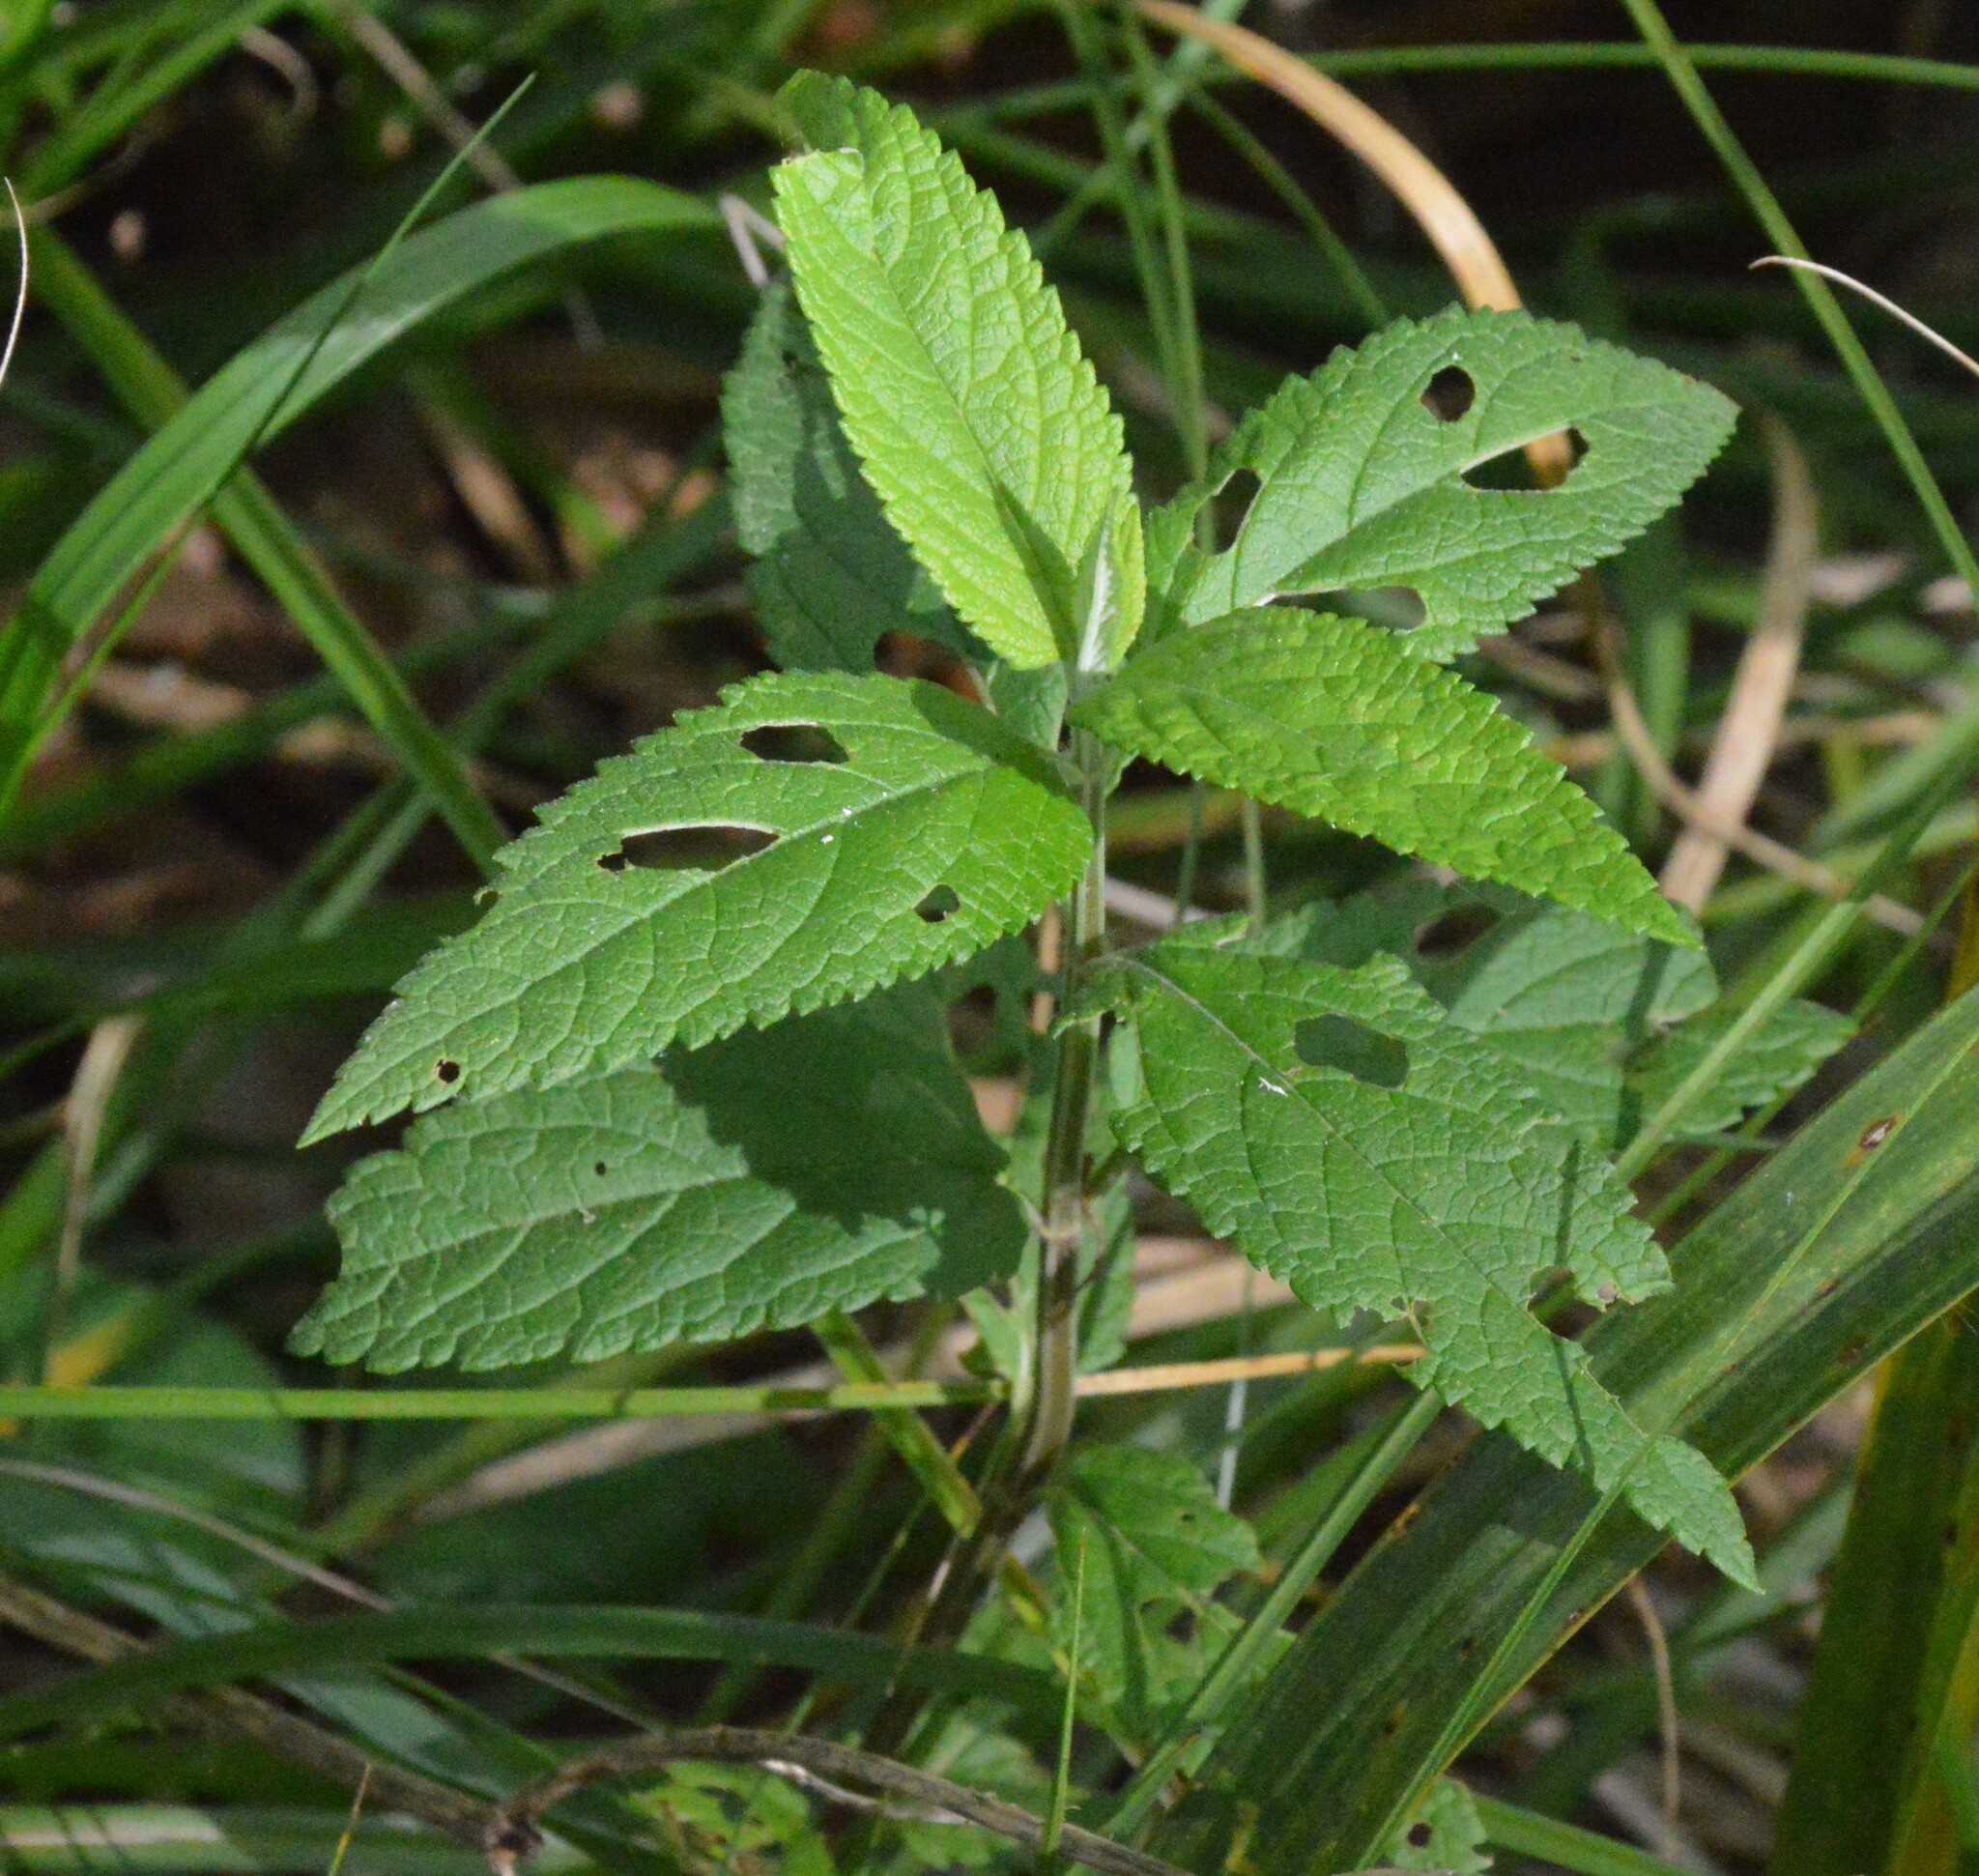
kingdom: Plantae
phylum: Tracheophyta
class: Magnoliopsida
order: Lamiales
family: Lamiaceae
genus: Teucrium
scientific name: Teucrium canadense
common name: American germander
